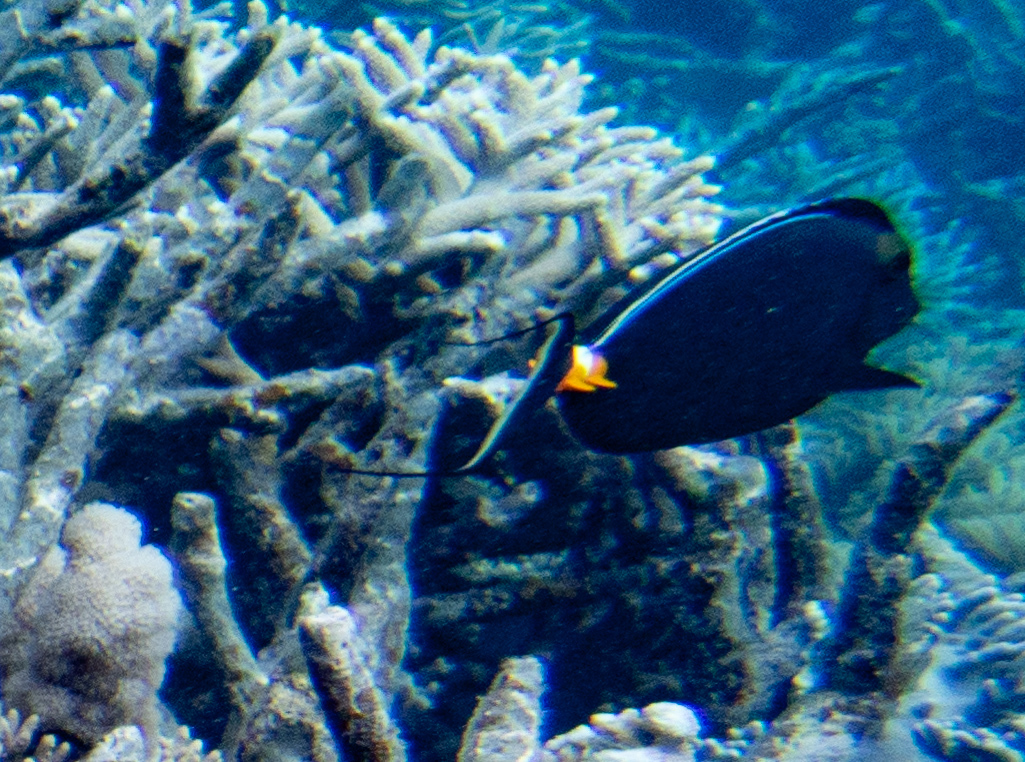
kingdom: Animalia
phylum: Chordata
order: Perciformes
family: Acanthuridae
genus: Naso
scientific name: Naso lituratus
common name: Orangespine unicornfish
